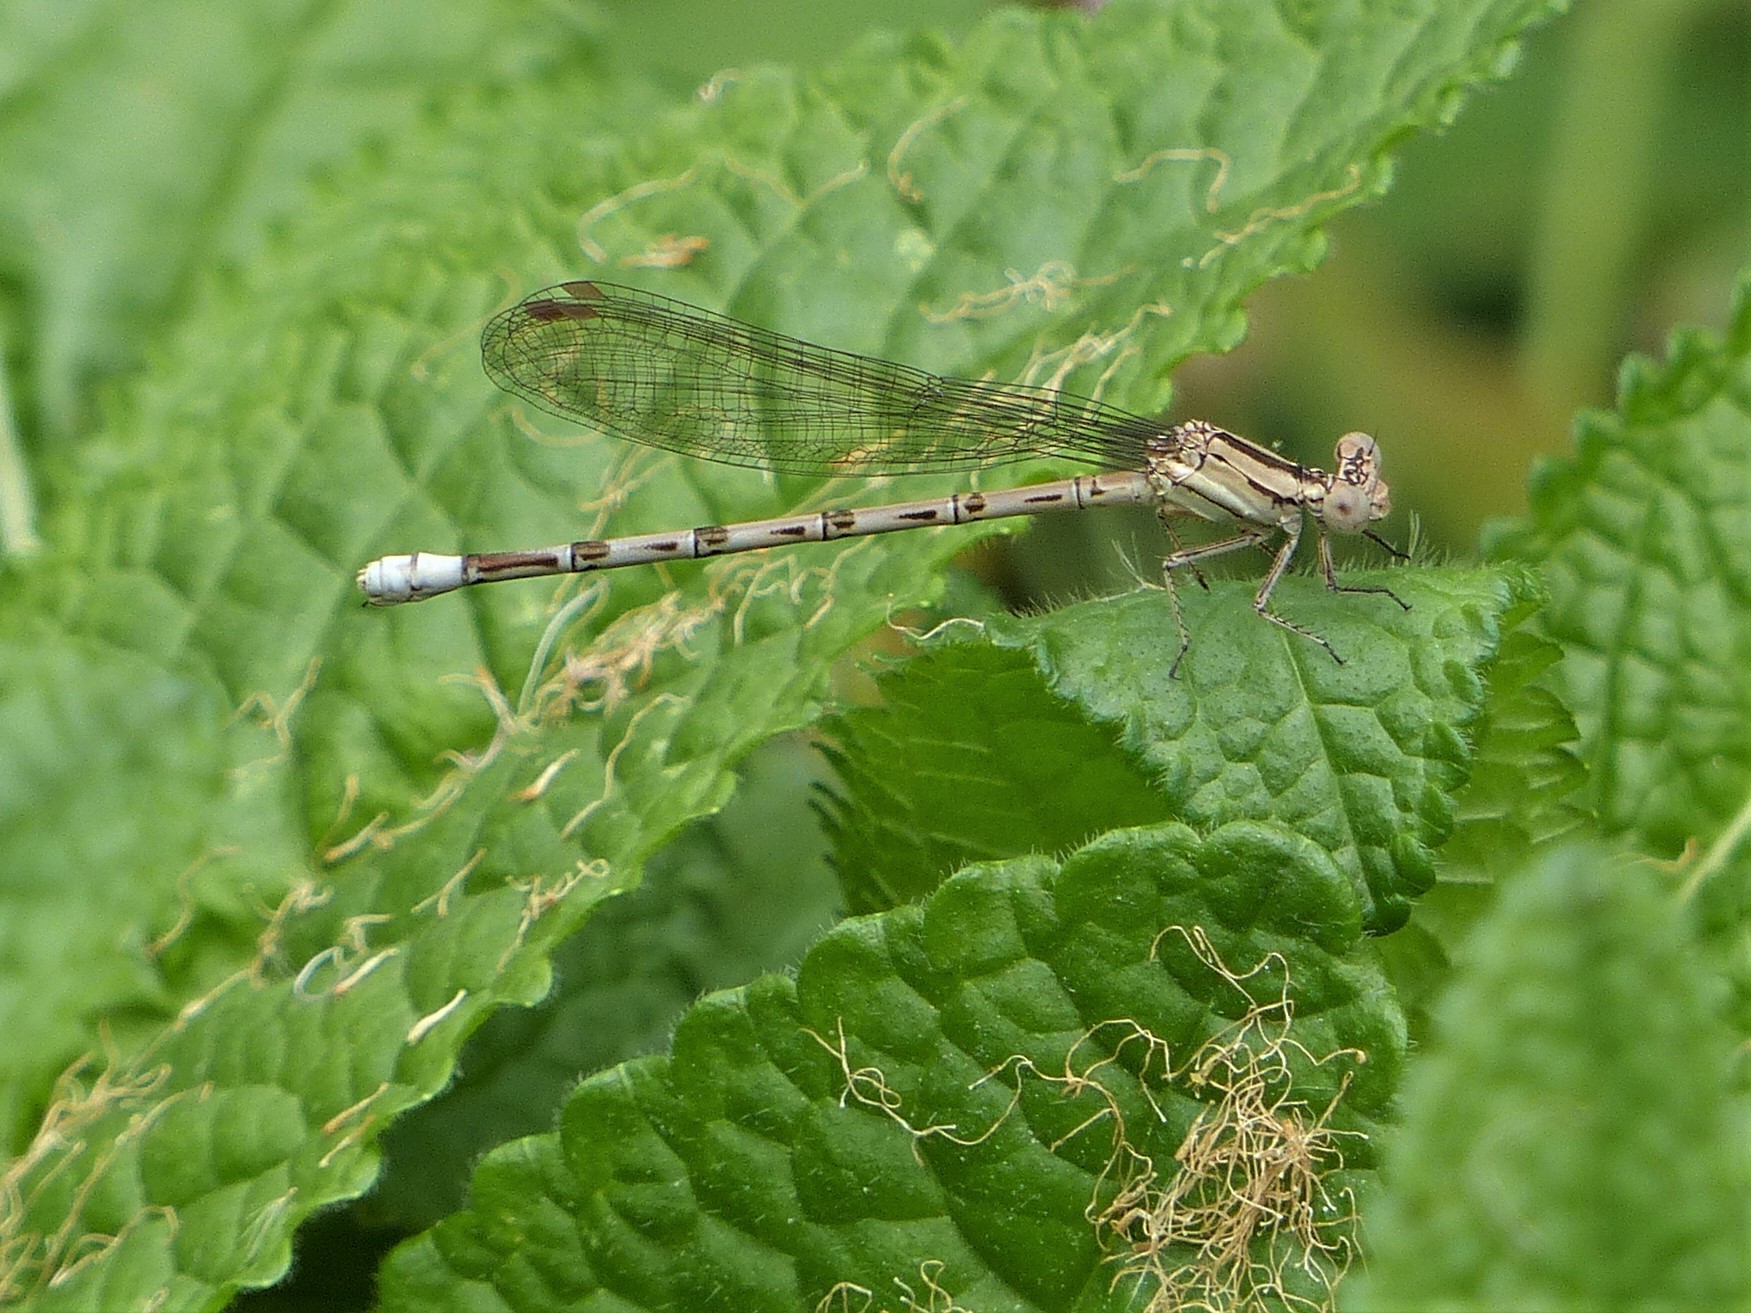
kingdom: Animalia
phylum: Arthropoda
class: Insecta
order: Odonata
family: Coenagrionidae
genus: Argia
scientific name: Argia funebris
